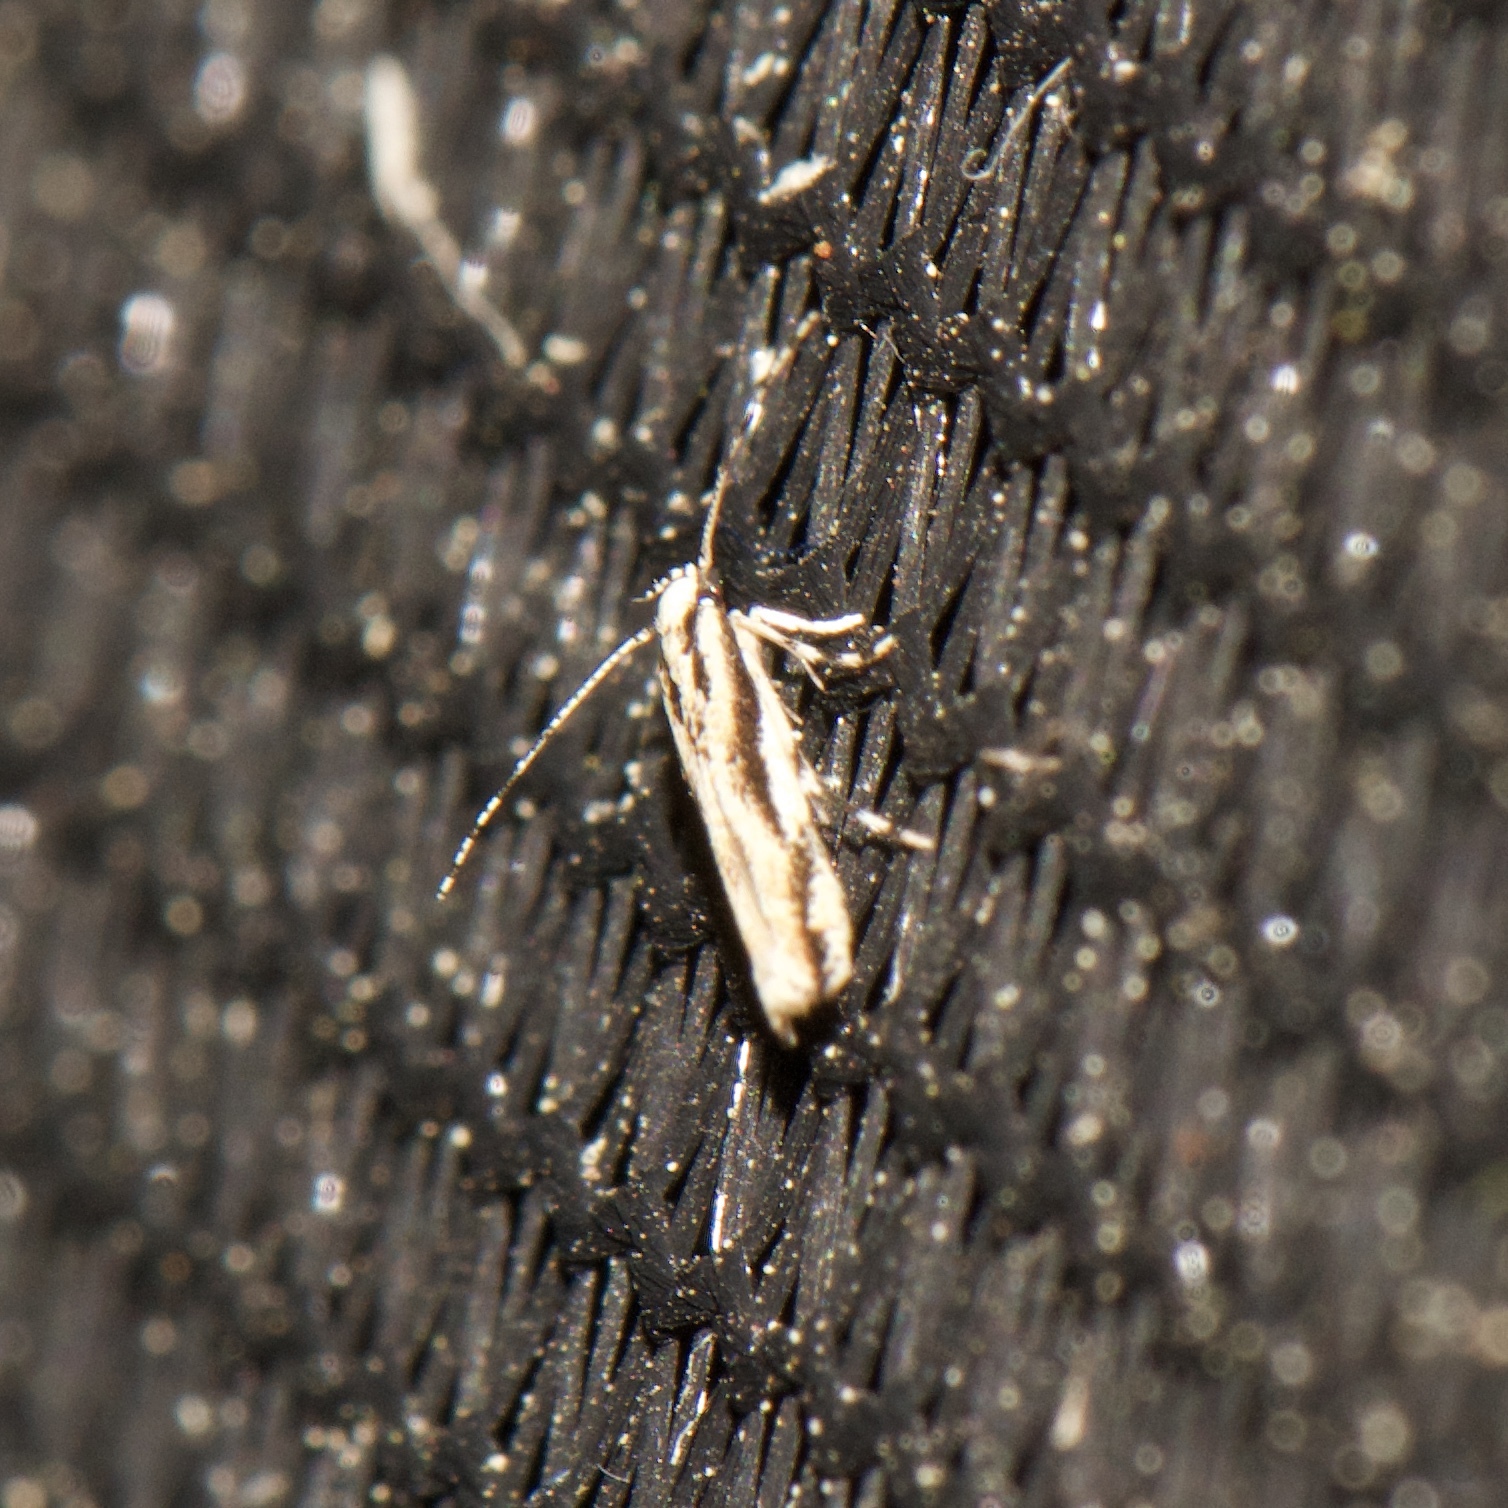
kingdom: Animalia
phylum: Arthropoda
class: Insecta
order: Lepidoptera
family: Cosmopterigidae
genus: Melanocinclis
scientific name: Melanocinclis lineigera
